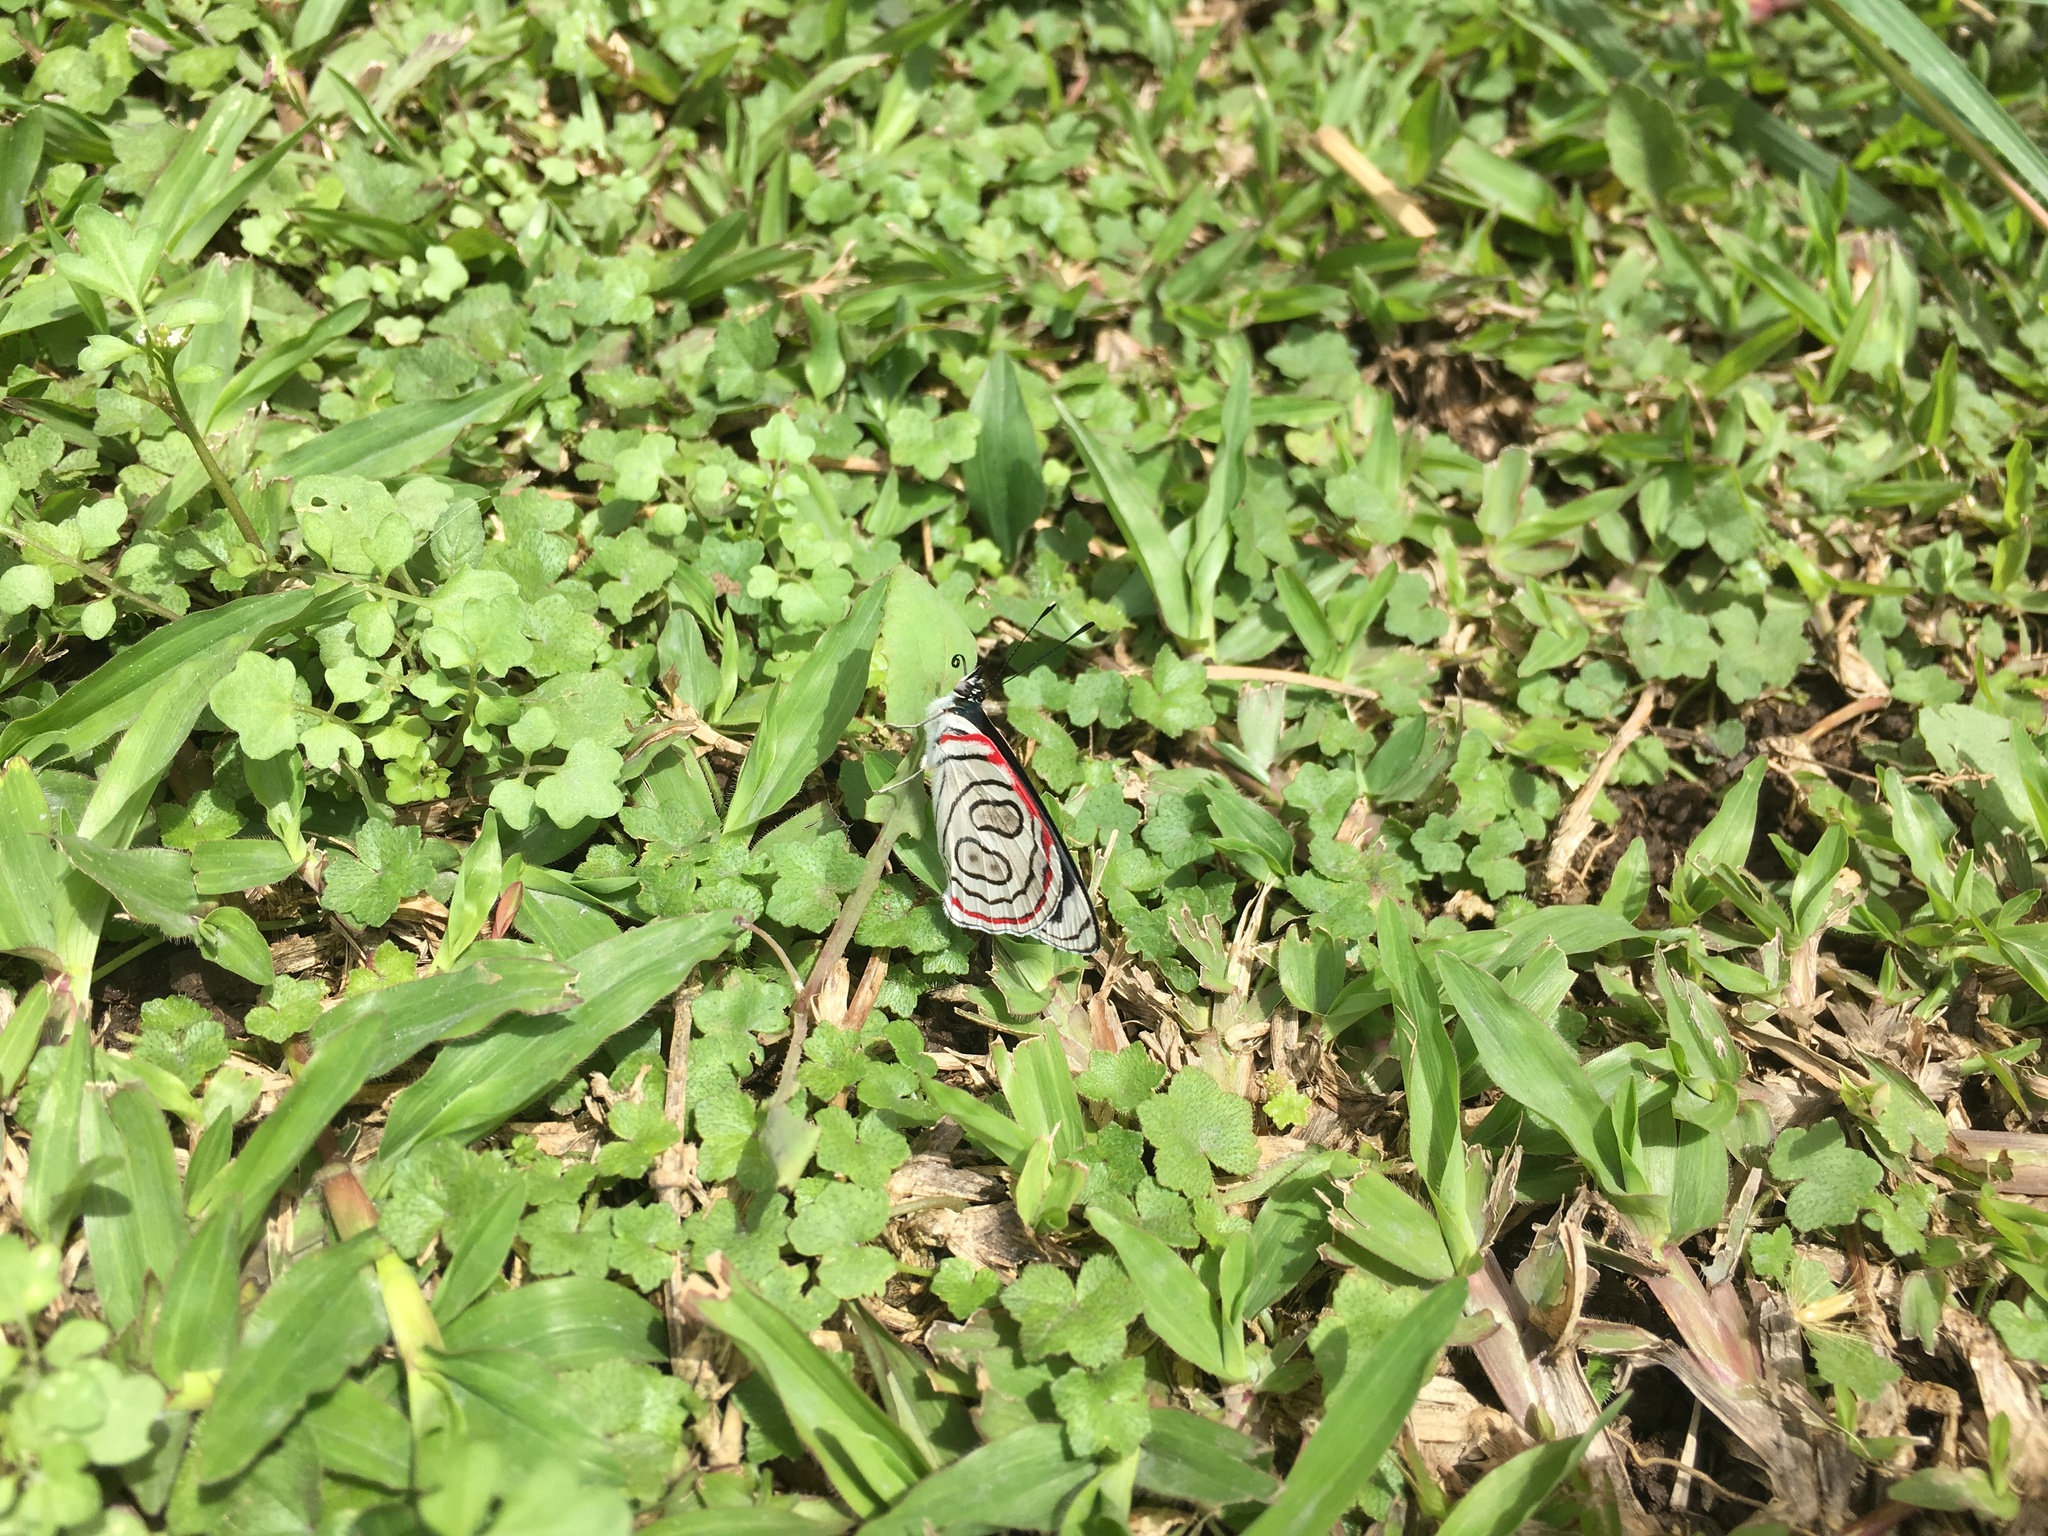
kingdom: Animalia
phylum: Arthropoda
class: Insecta
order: Lepidoptera
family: Nymphalidae
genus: Diaethria
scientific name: Diaethria astala
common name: Navy eighty-eight
